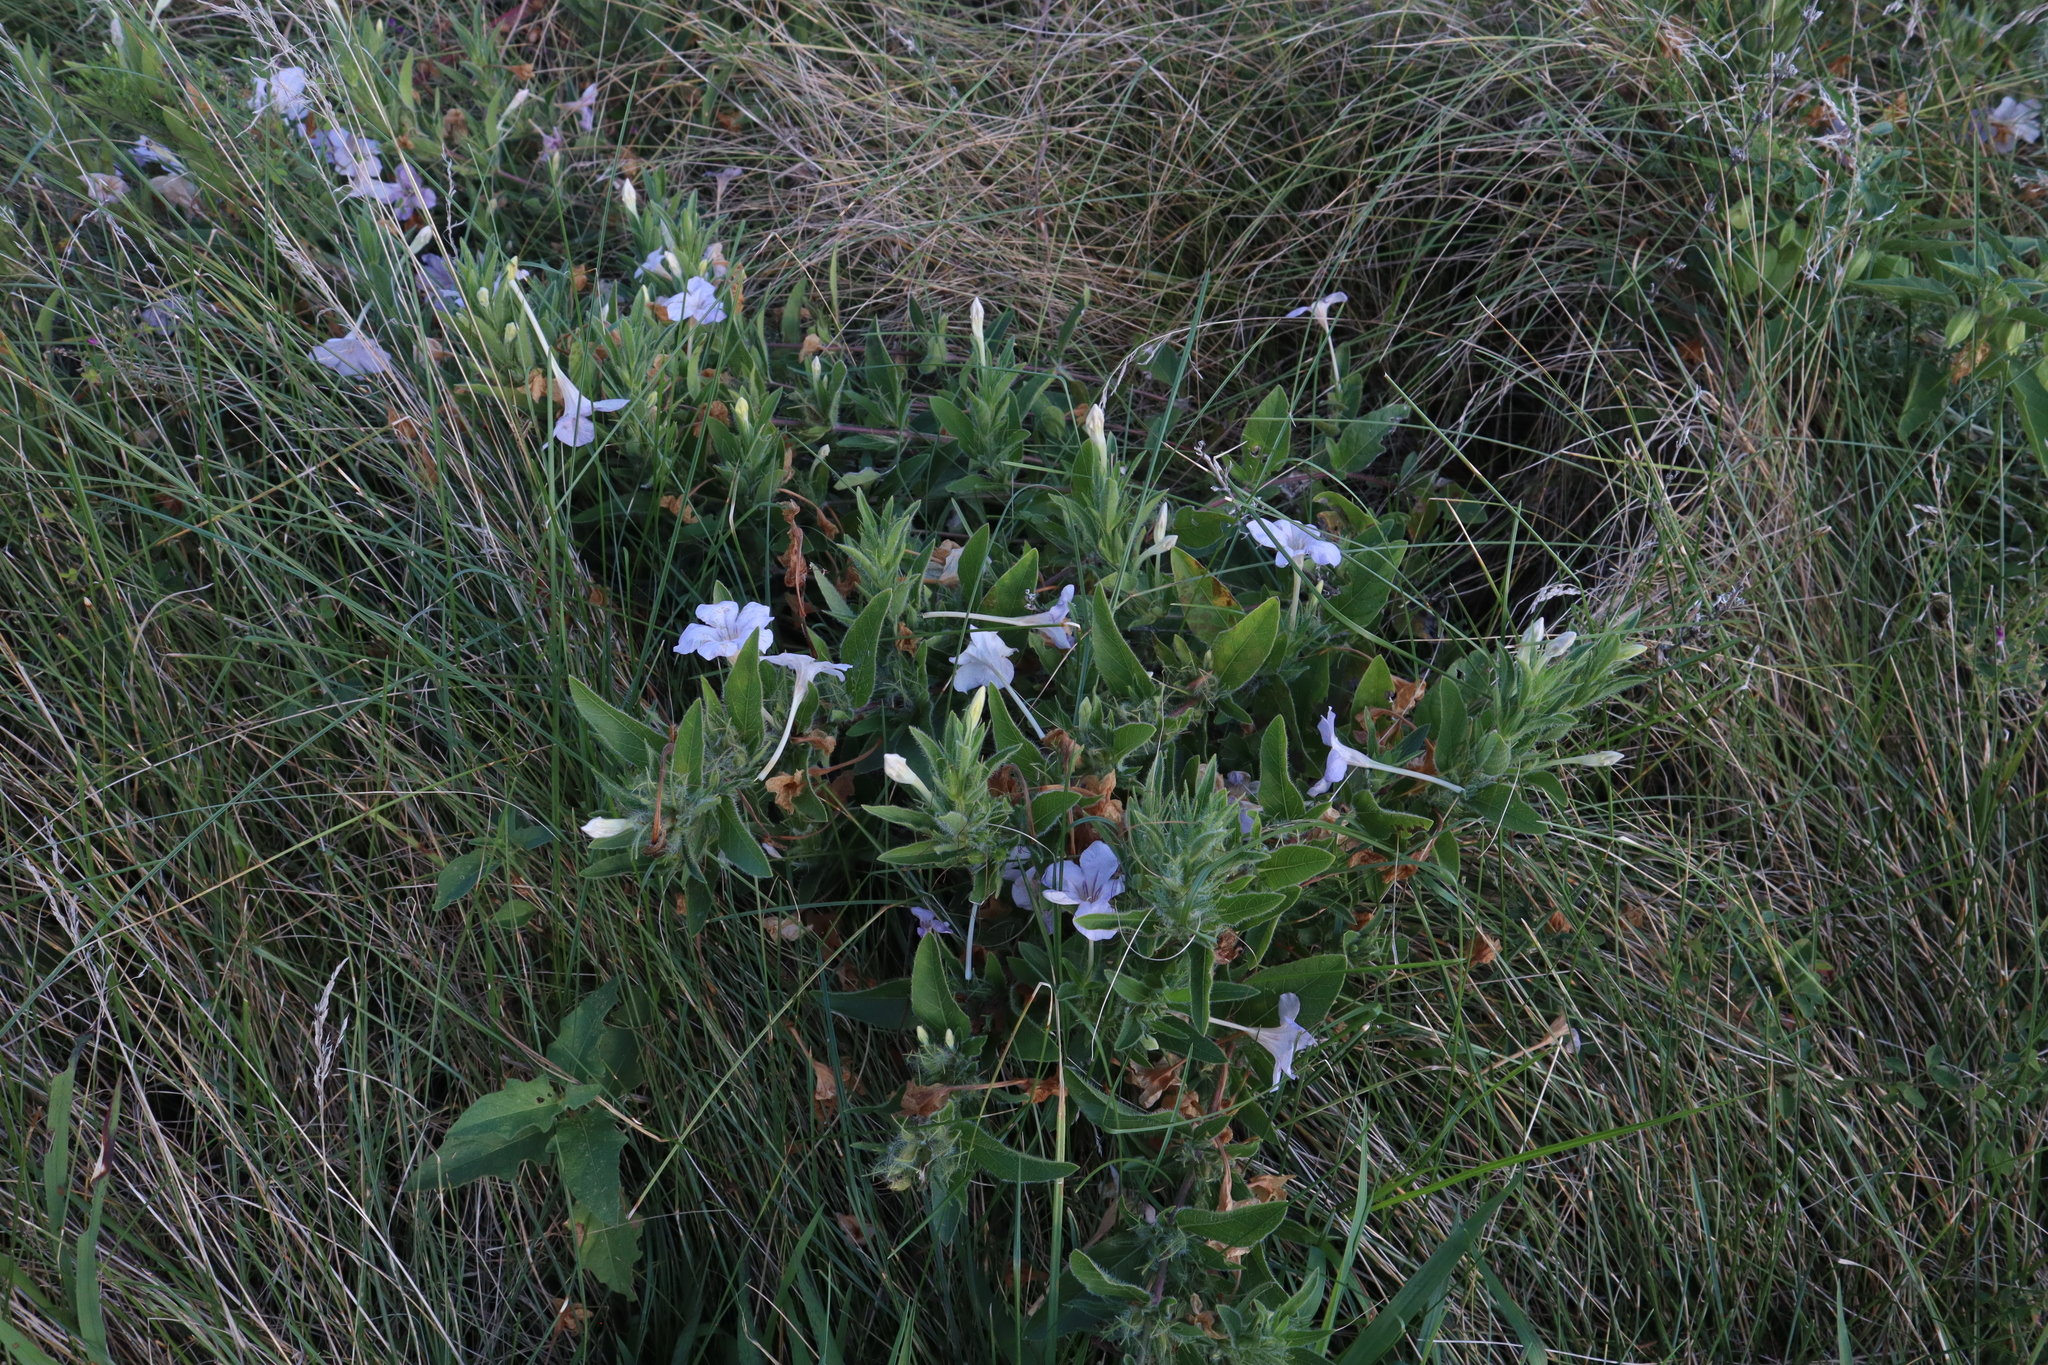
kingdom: Plantae
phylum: Tracheophyta
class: Magnoliopsida
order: Lamiales
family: Acanthaceae
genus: Ruellia
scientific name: Ruellia humilis
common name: Fringe-leaf ruellia
